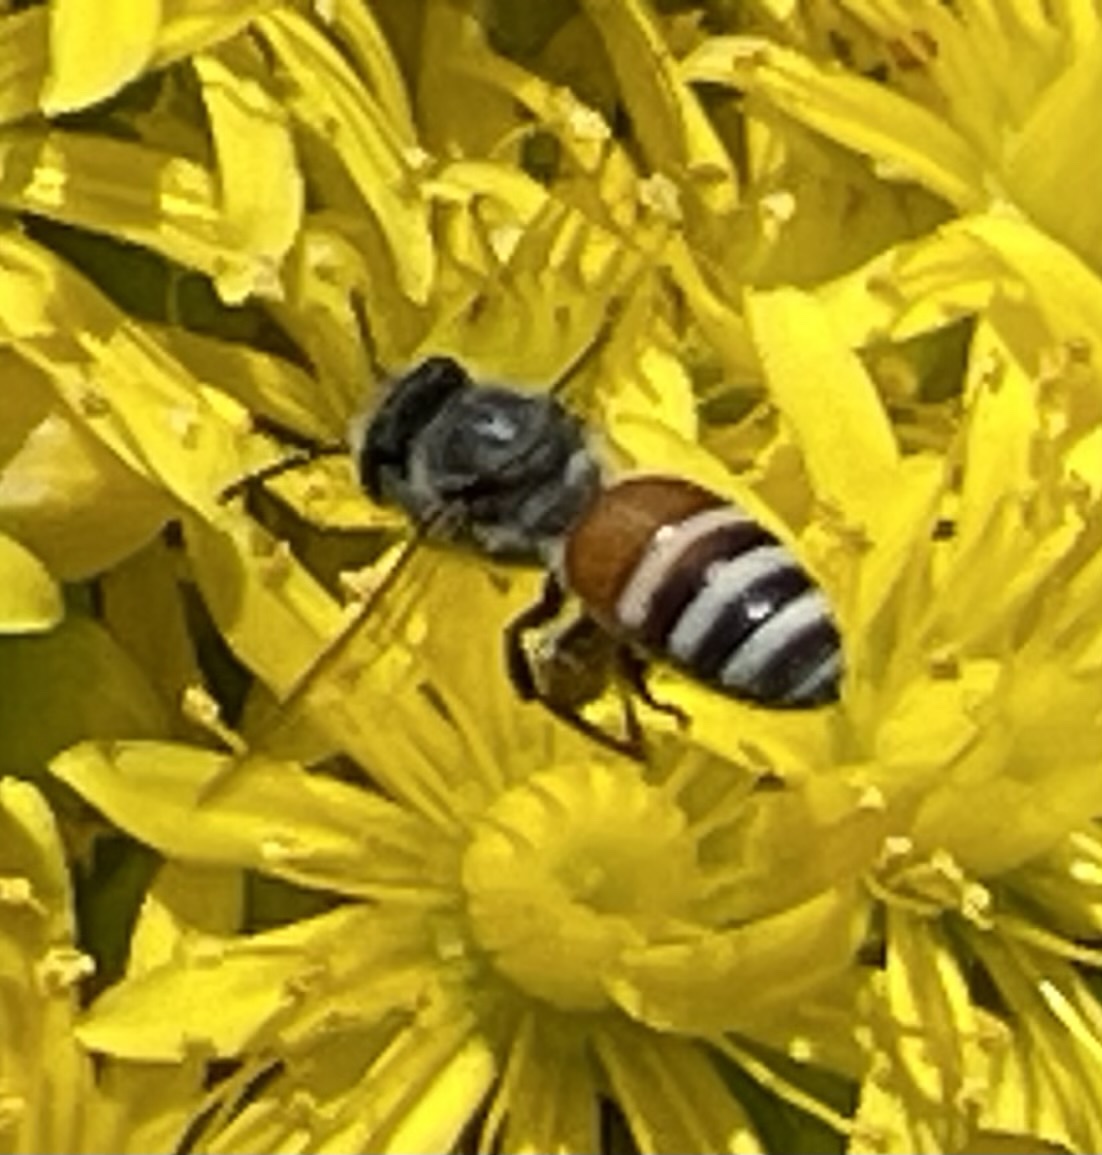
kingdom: Animalia
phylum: Arthropoda
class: Insecta
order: Hymenoptera
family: Apidae
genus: Apis
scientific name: Apis florea
